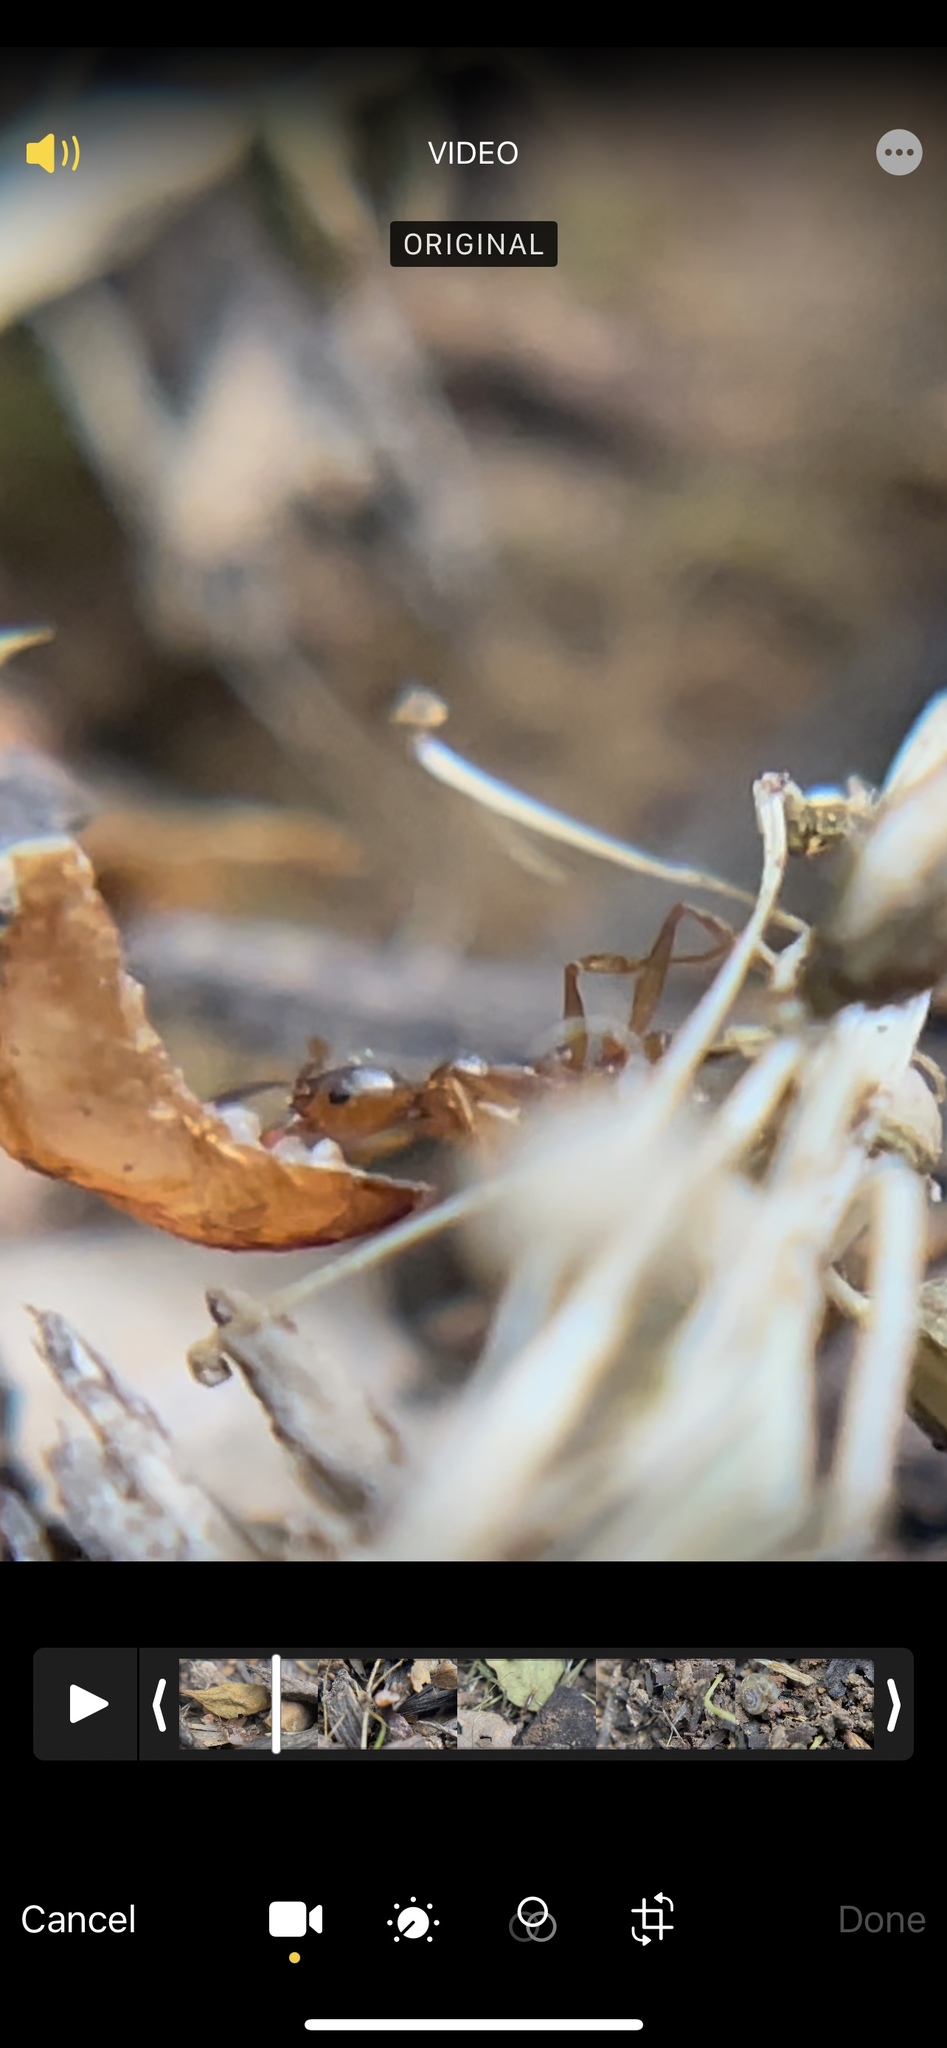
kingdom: Animalia
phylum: Arthropoda
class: Insecta
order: Hymenoptera
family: Formicidae
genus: Aphaenogaster
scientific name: Aphaenogaster carolinensis
